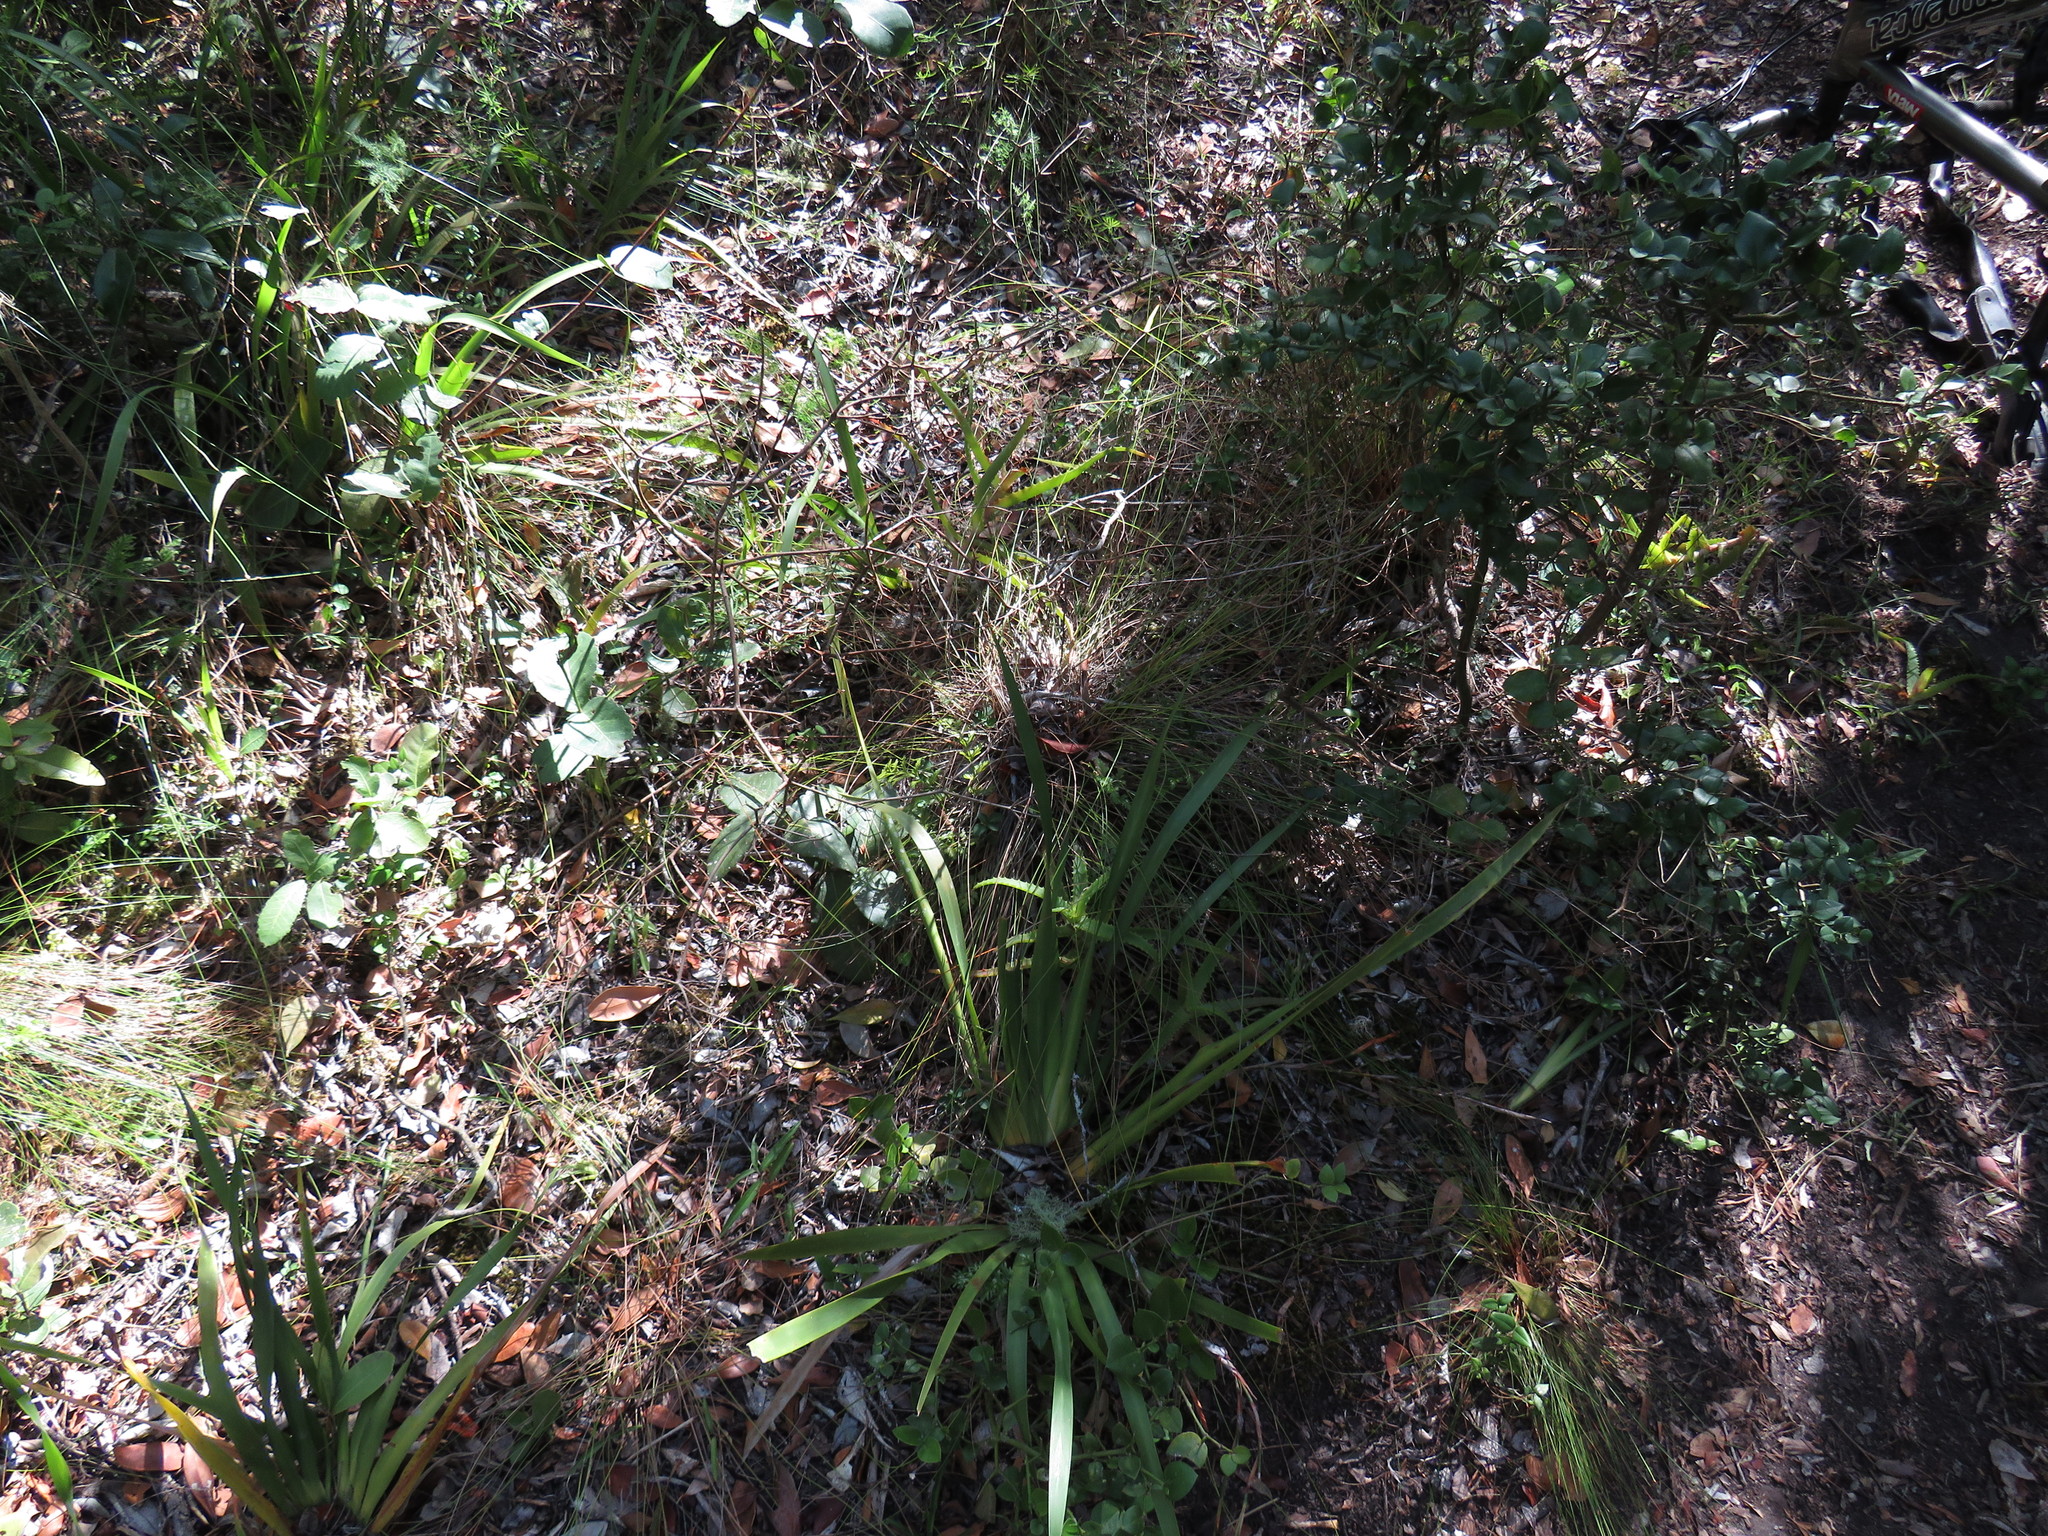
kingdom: Plantae
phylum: Tracheophyta
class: Liliopsida
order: Poales
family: Cyperaceae
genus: Ficinia
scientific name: Ficinia trispicata
